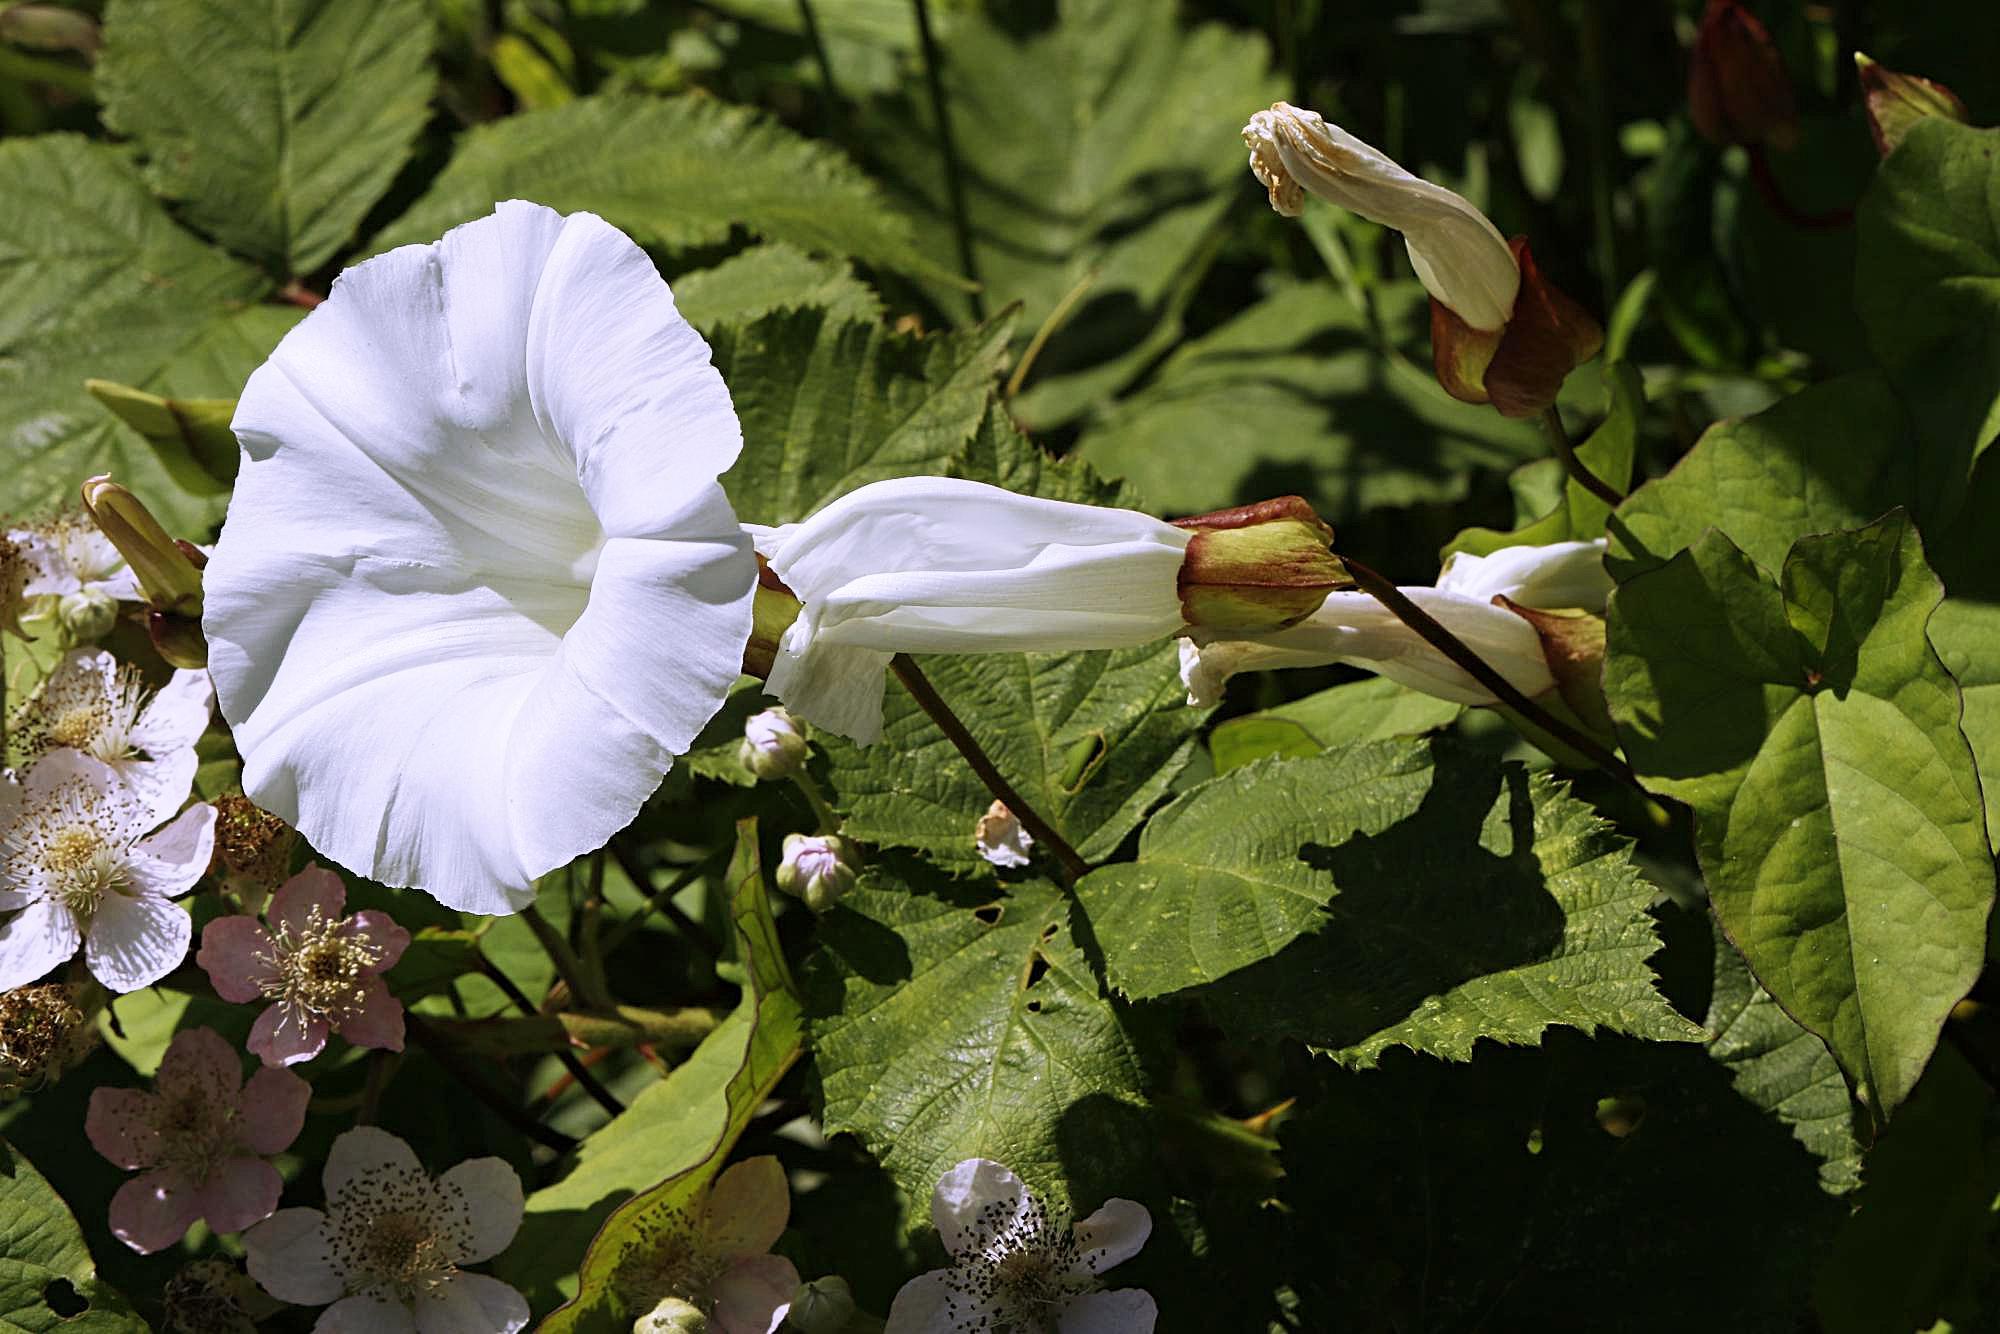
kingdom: Plantae
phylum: Tracheophyta
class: Magnoliopsida
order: Solanales
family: Convolvulaceae
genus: Calystegia
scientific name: Calystegia silvatica
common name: Large bindweed
